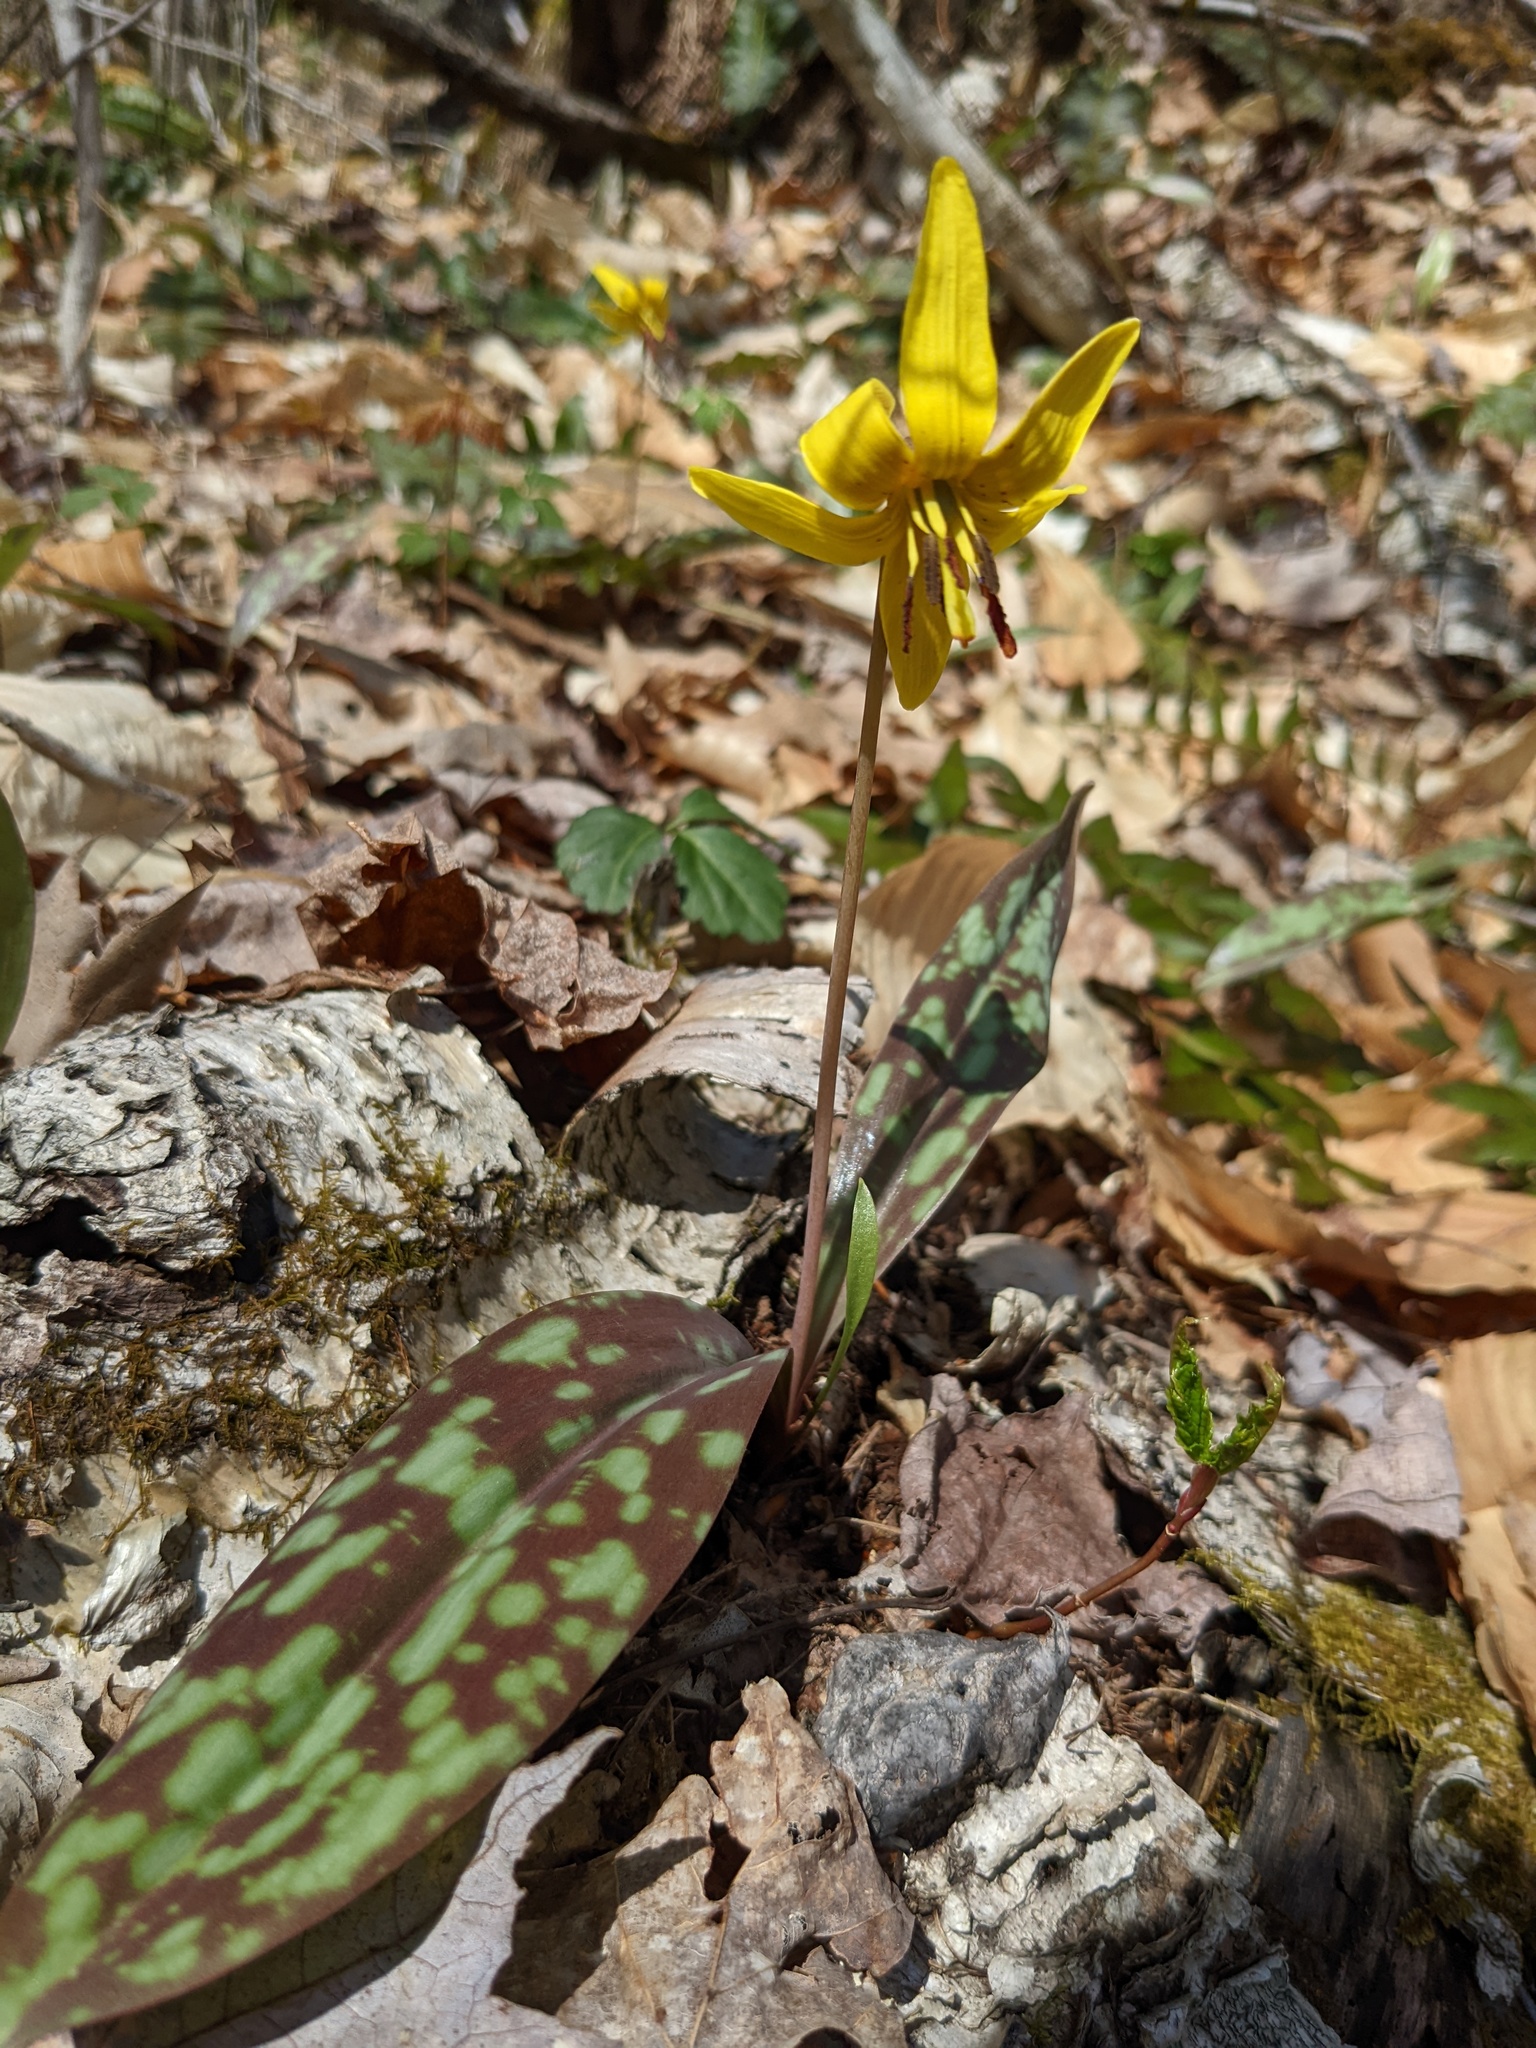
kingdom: Plantae
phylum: Tracheophyta
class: Liliopsida
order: Liliales
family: Liliaceae
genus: Erythronium
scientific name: Erythronium americanum
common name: Yellow adder's-tongue
